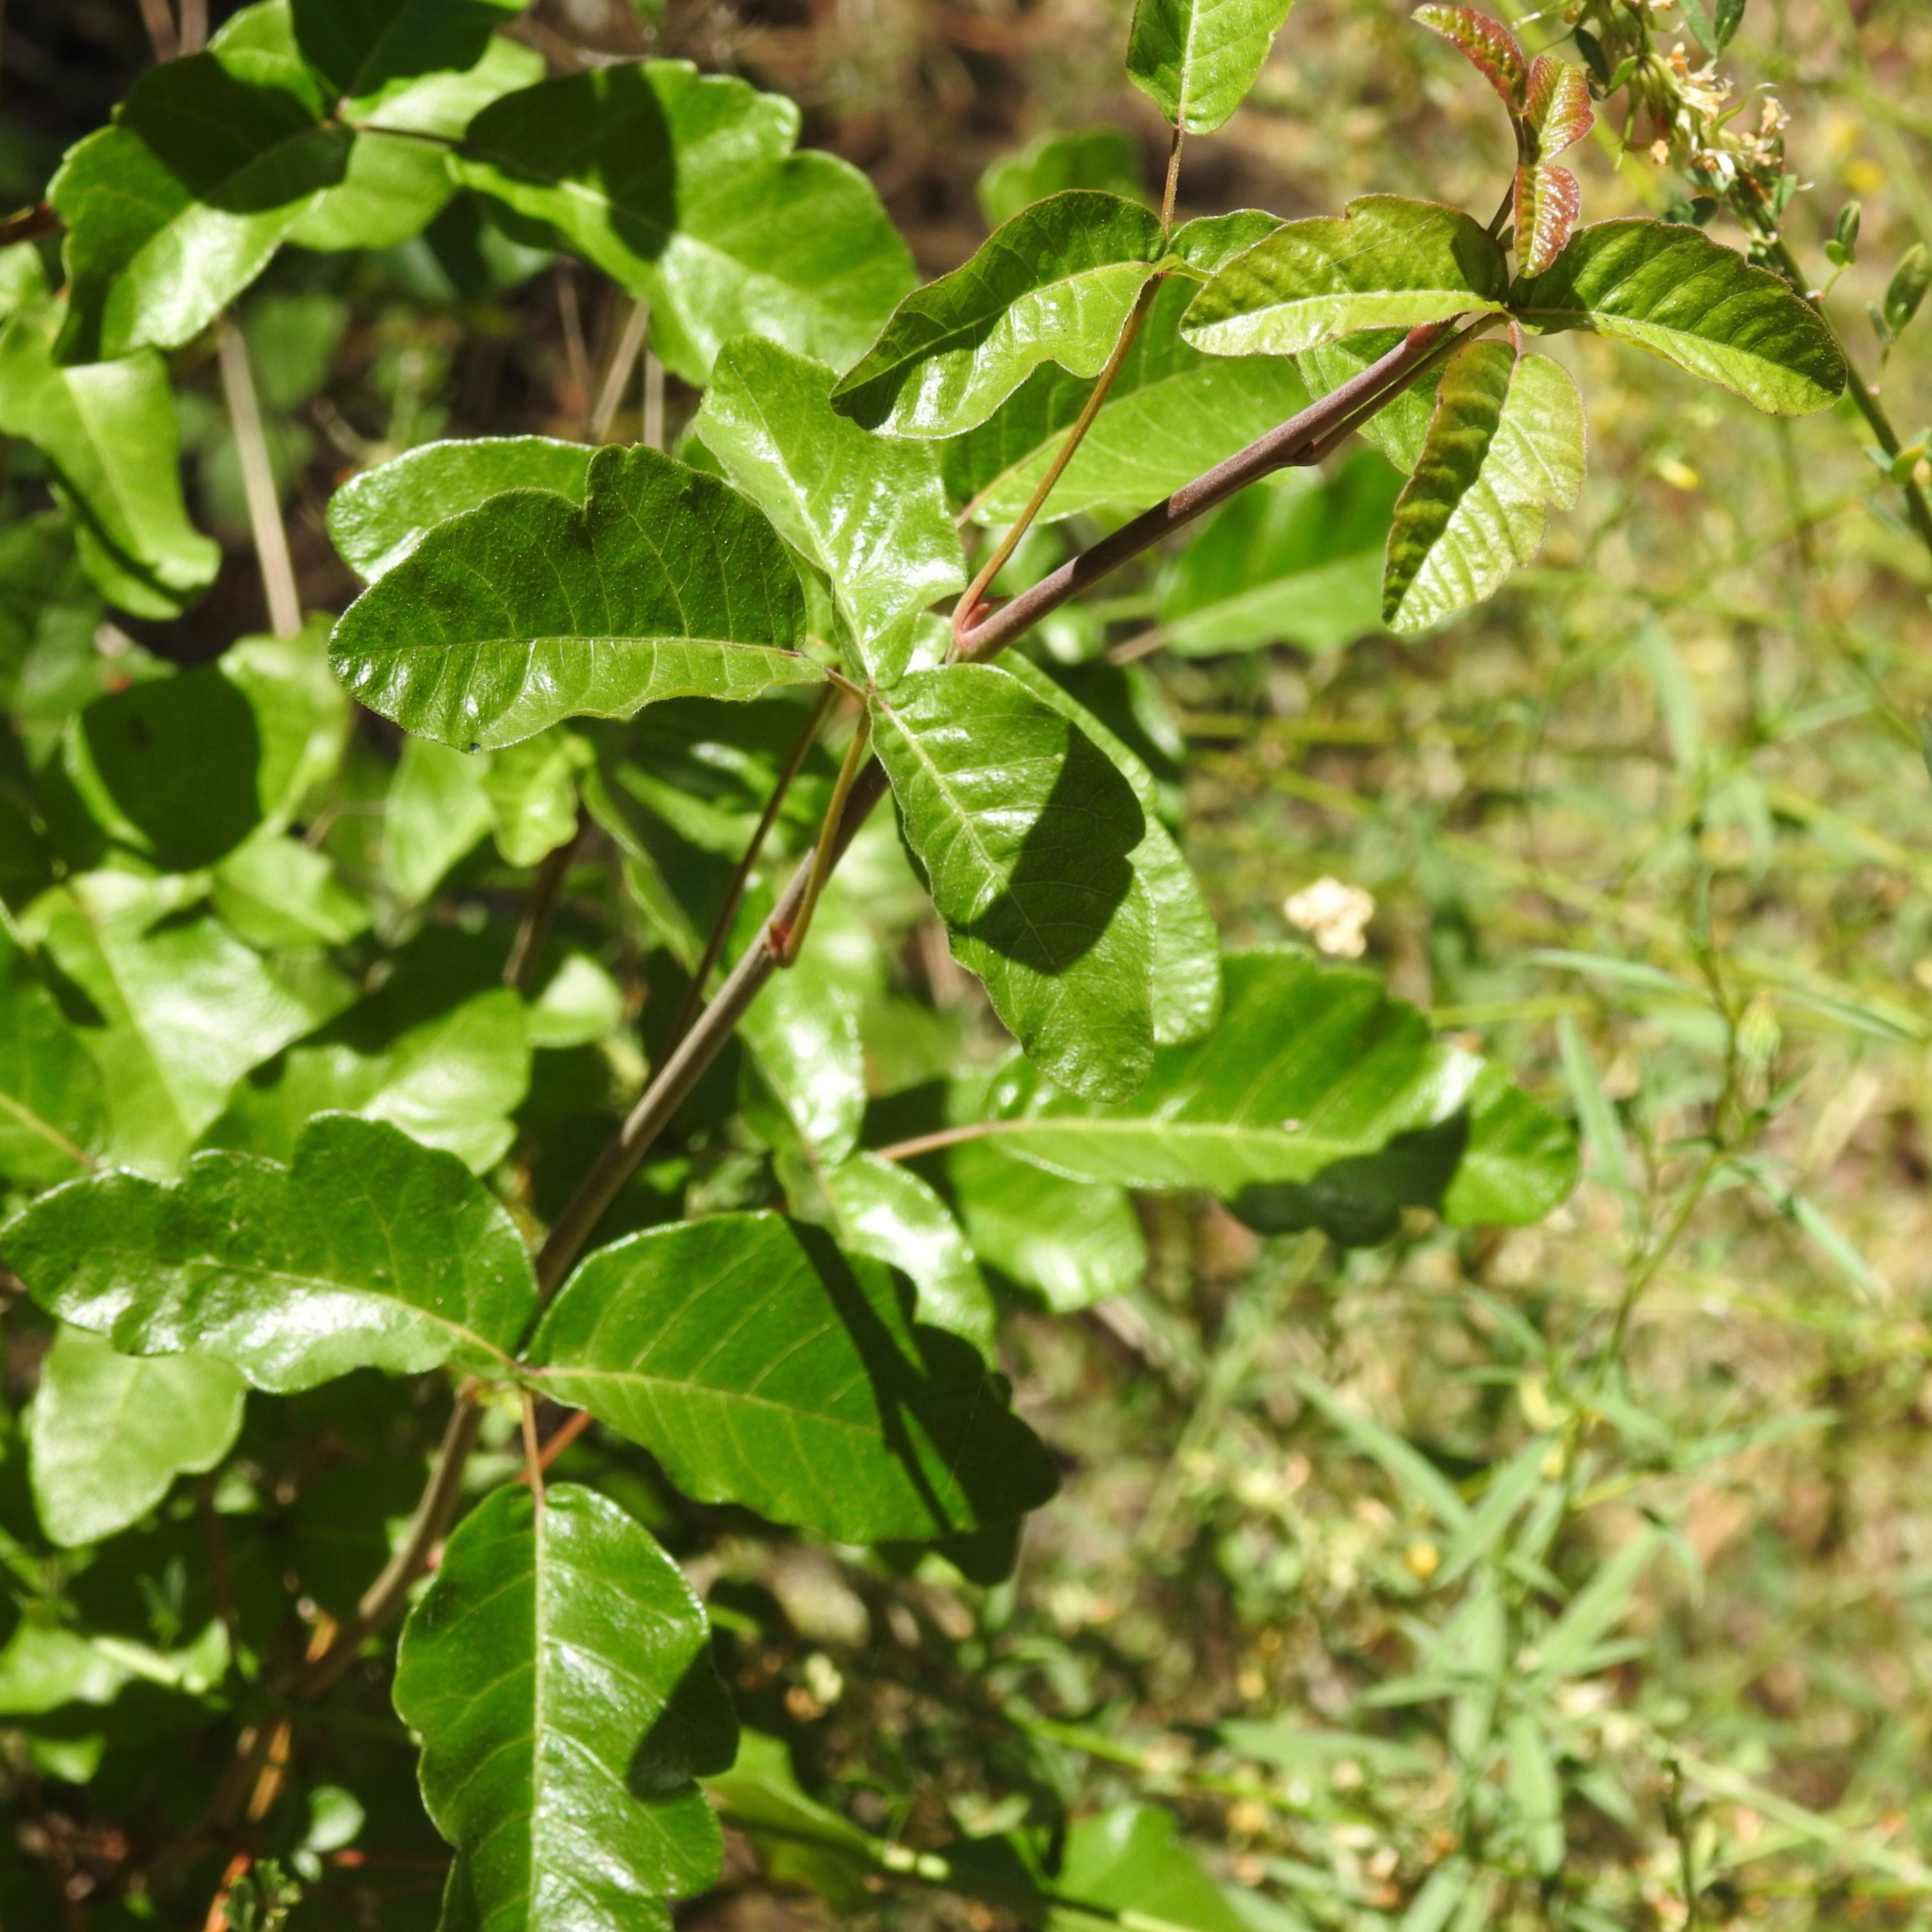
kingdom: Plantae
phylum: Tracheophyta
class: Magnoliopsida
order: Sapindales
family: Anacardiaceae
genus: Toxicodendron
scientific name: Toxicodendron diversilobum
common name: Pacific poison-oak
